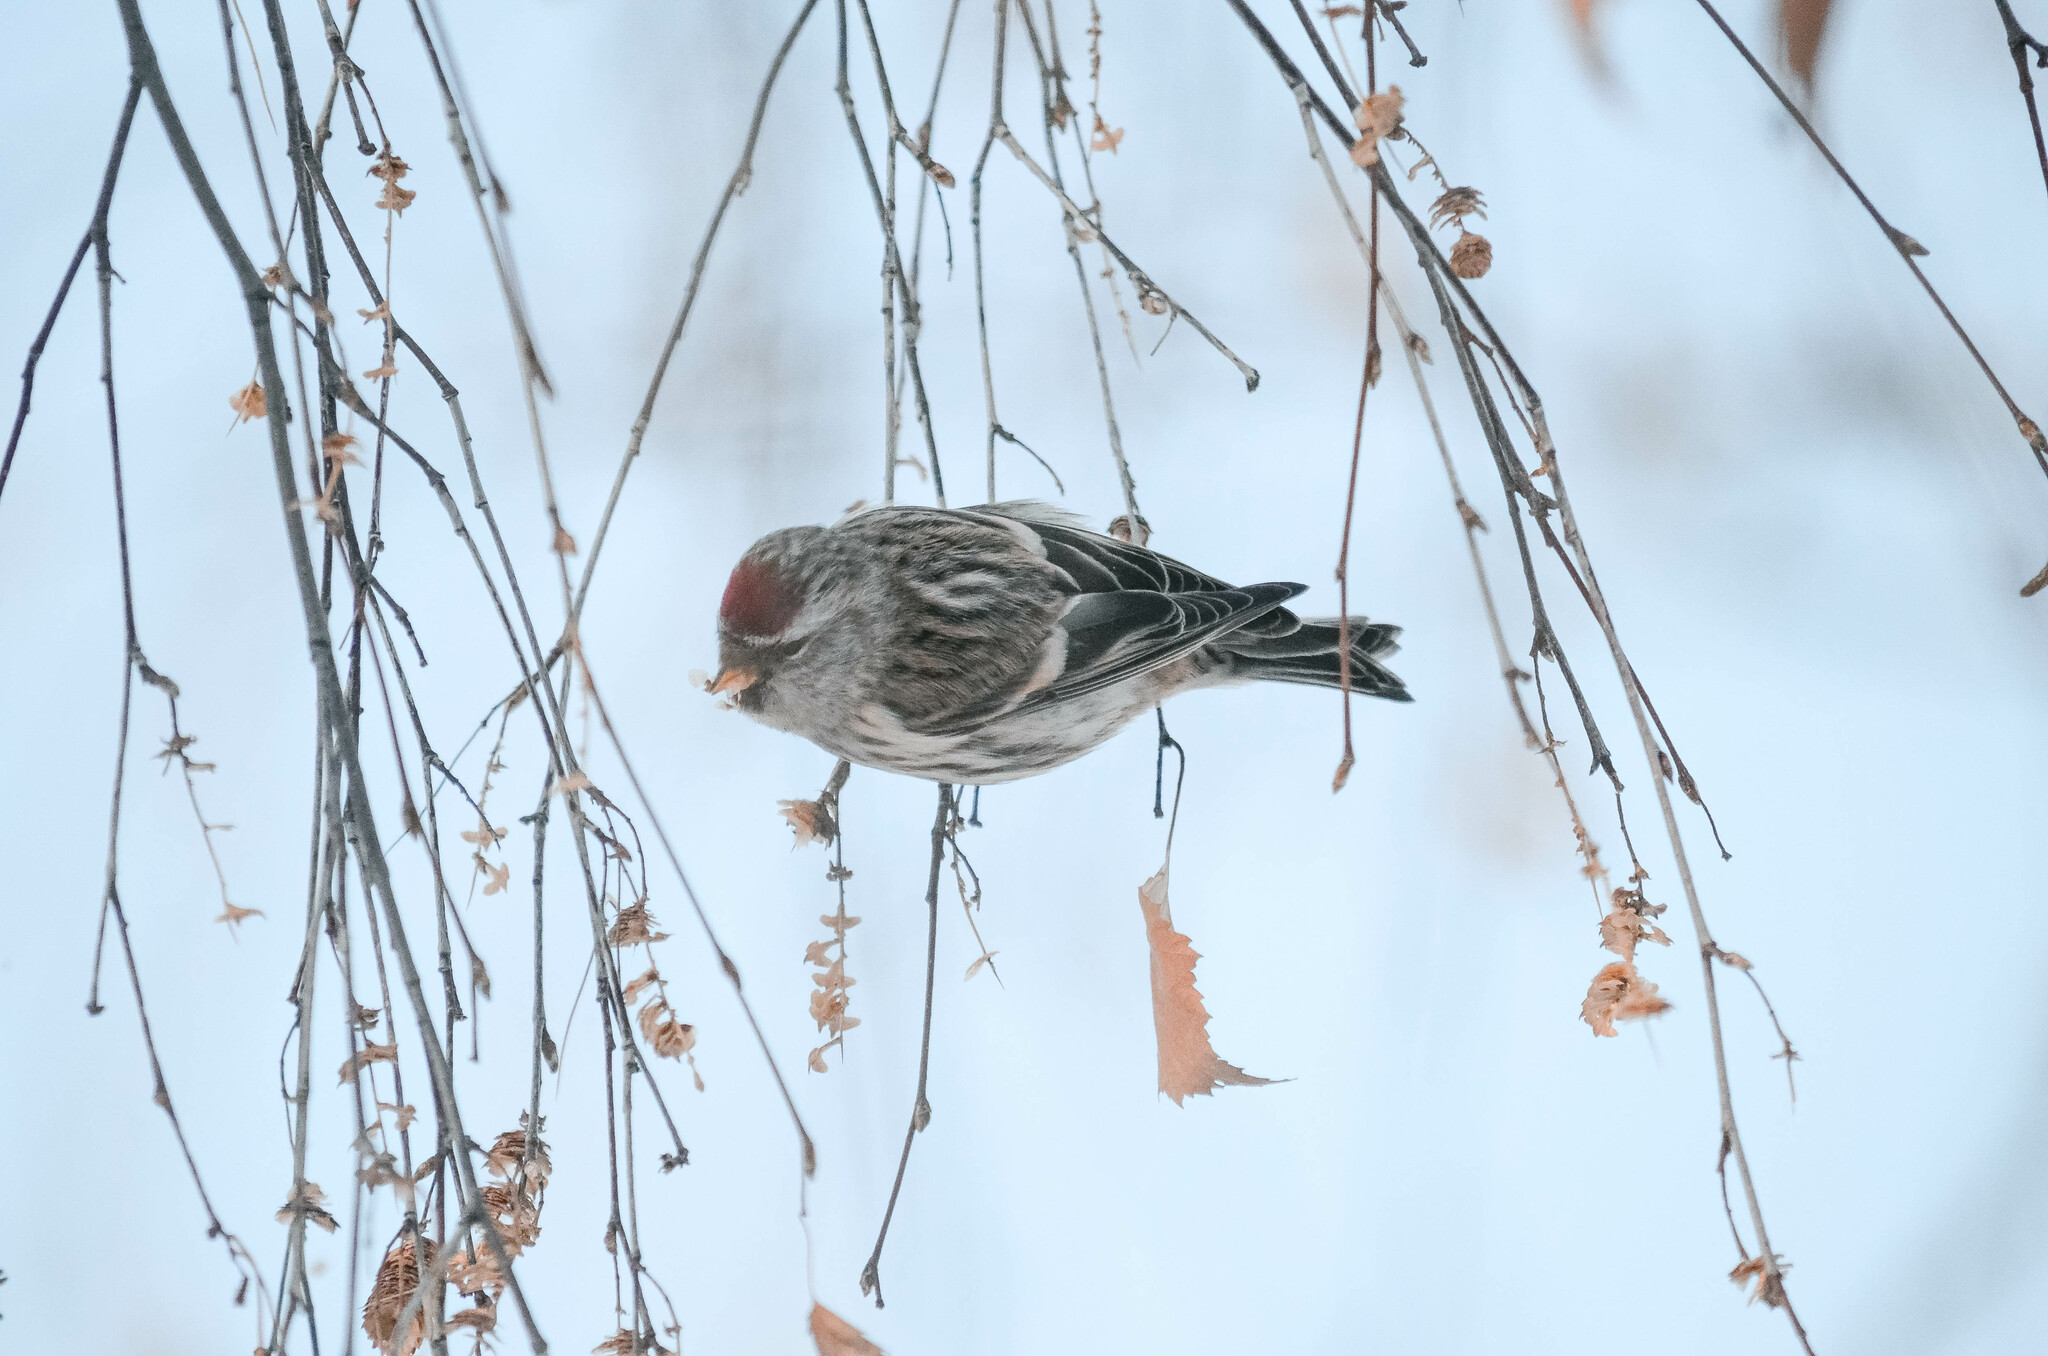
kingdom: Animalia
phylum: Chordata
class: Aves
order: Passeriformes
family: Fringillidae
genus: Acanthis
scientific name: Acanthis flammea
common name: Common redpoll
